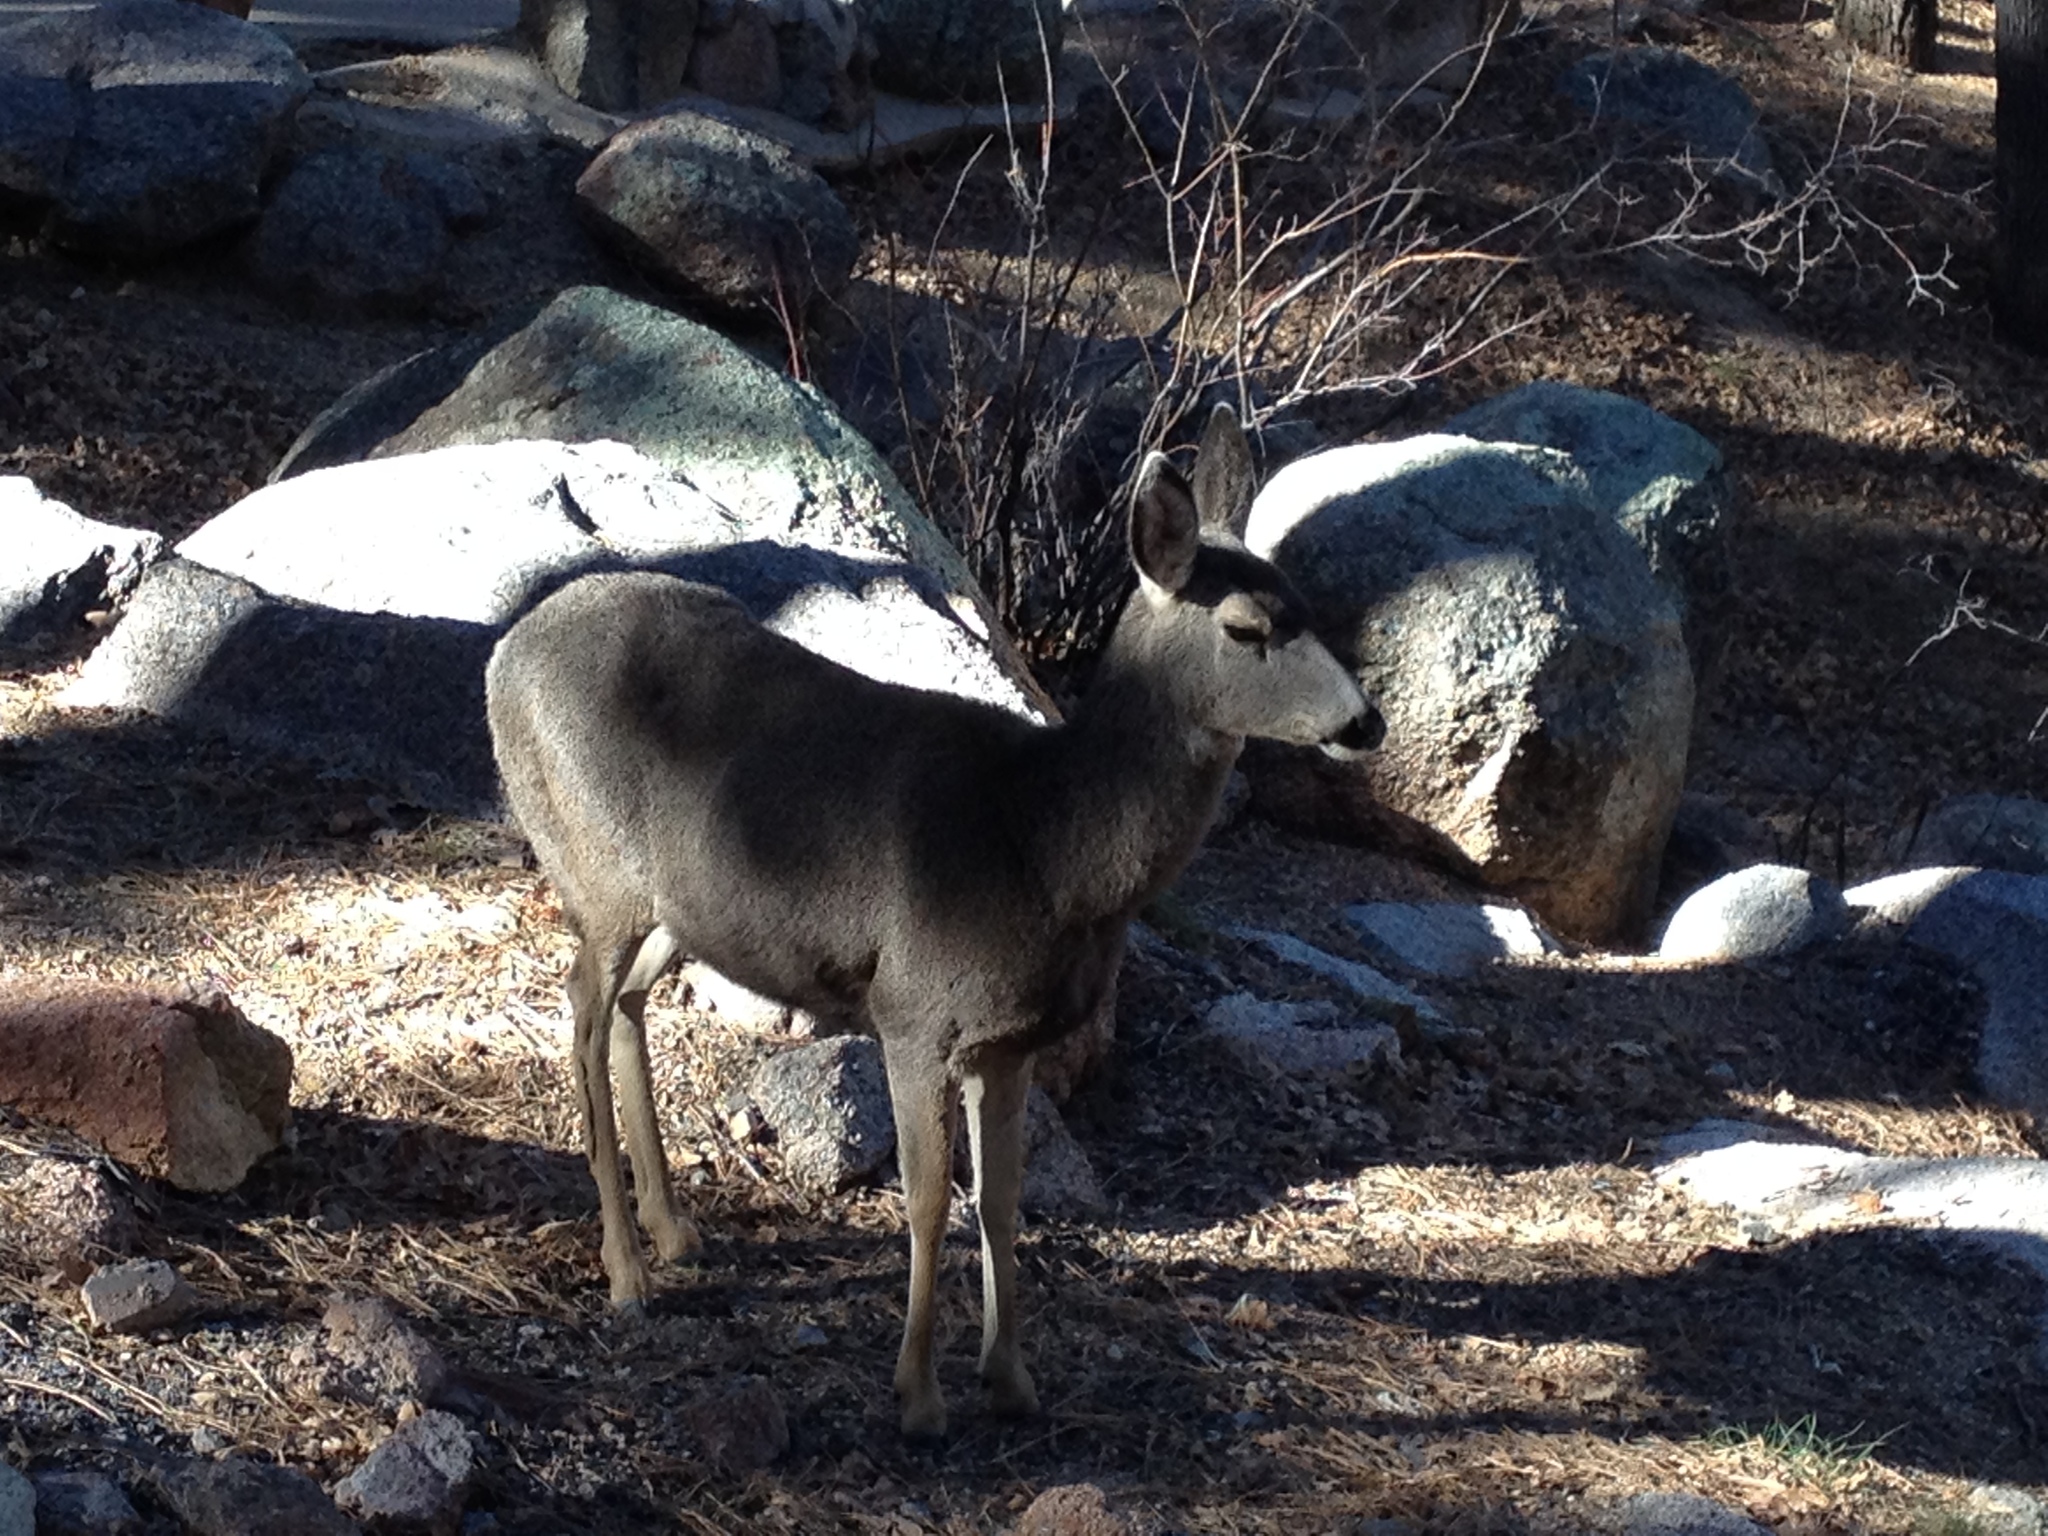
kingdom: Animalia
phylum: Chordata
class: Mammalia
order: Artiodactyla
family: Cervidae
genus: Odocoileus
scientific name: Odocoileus hemionus
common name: Mule deer
